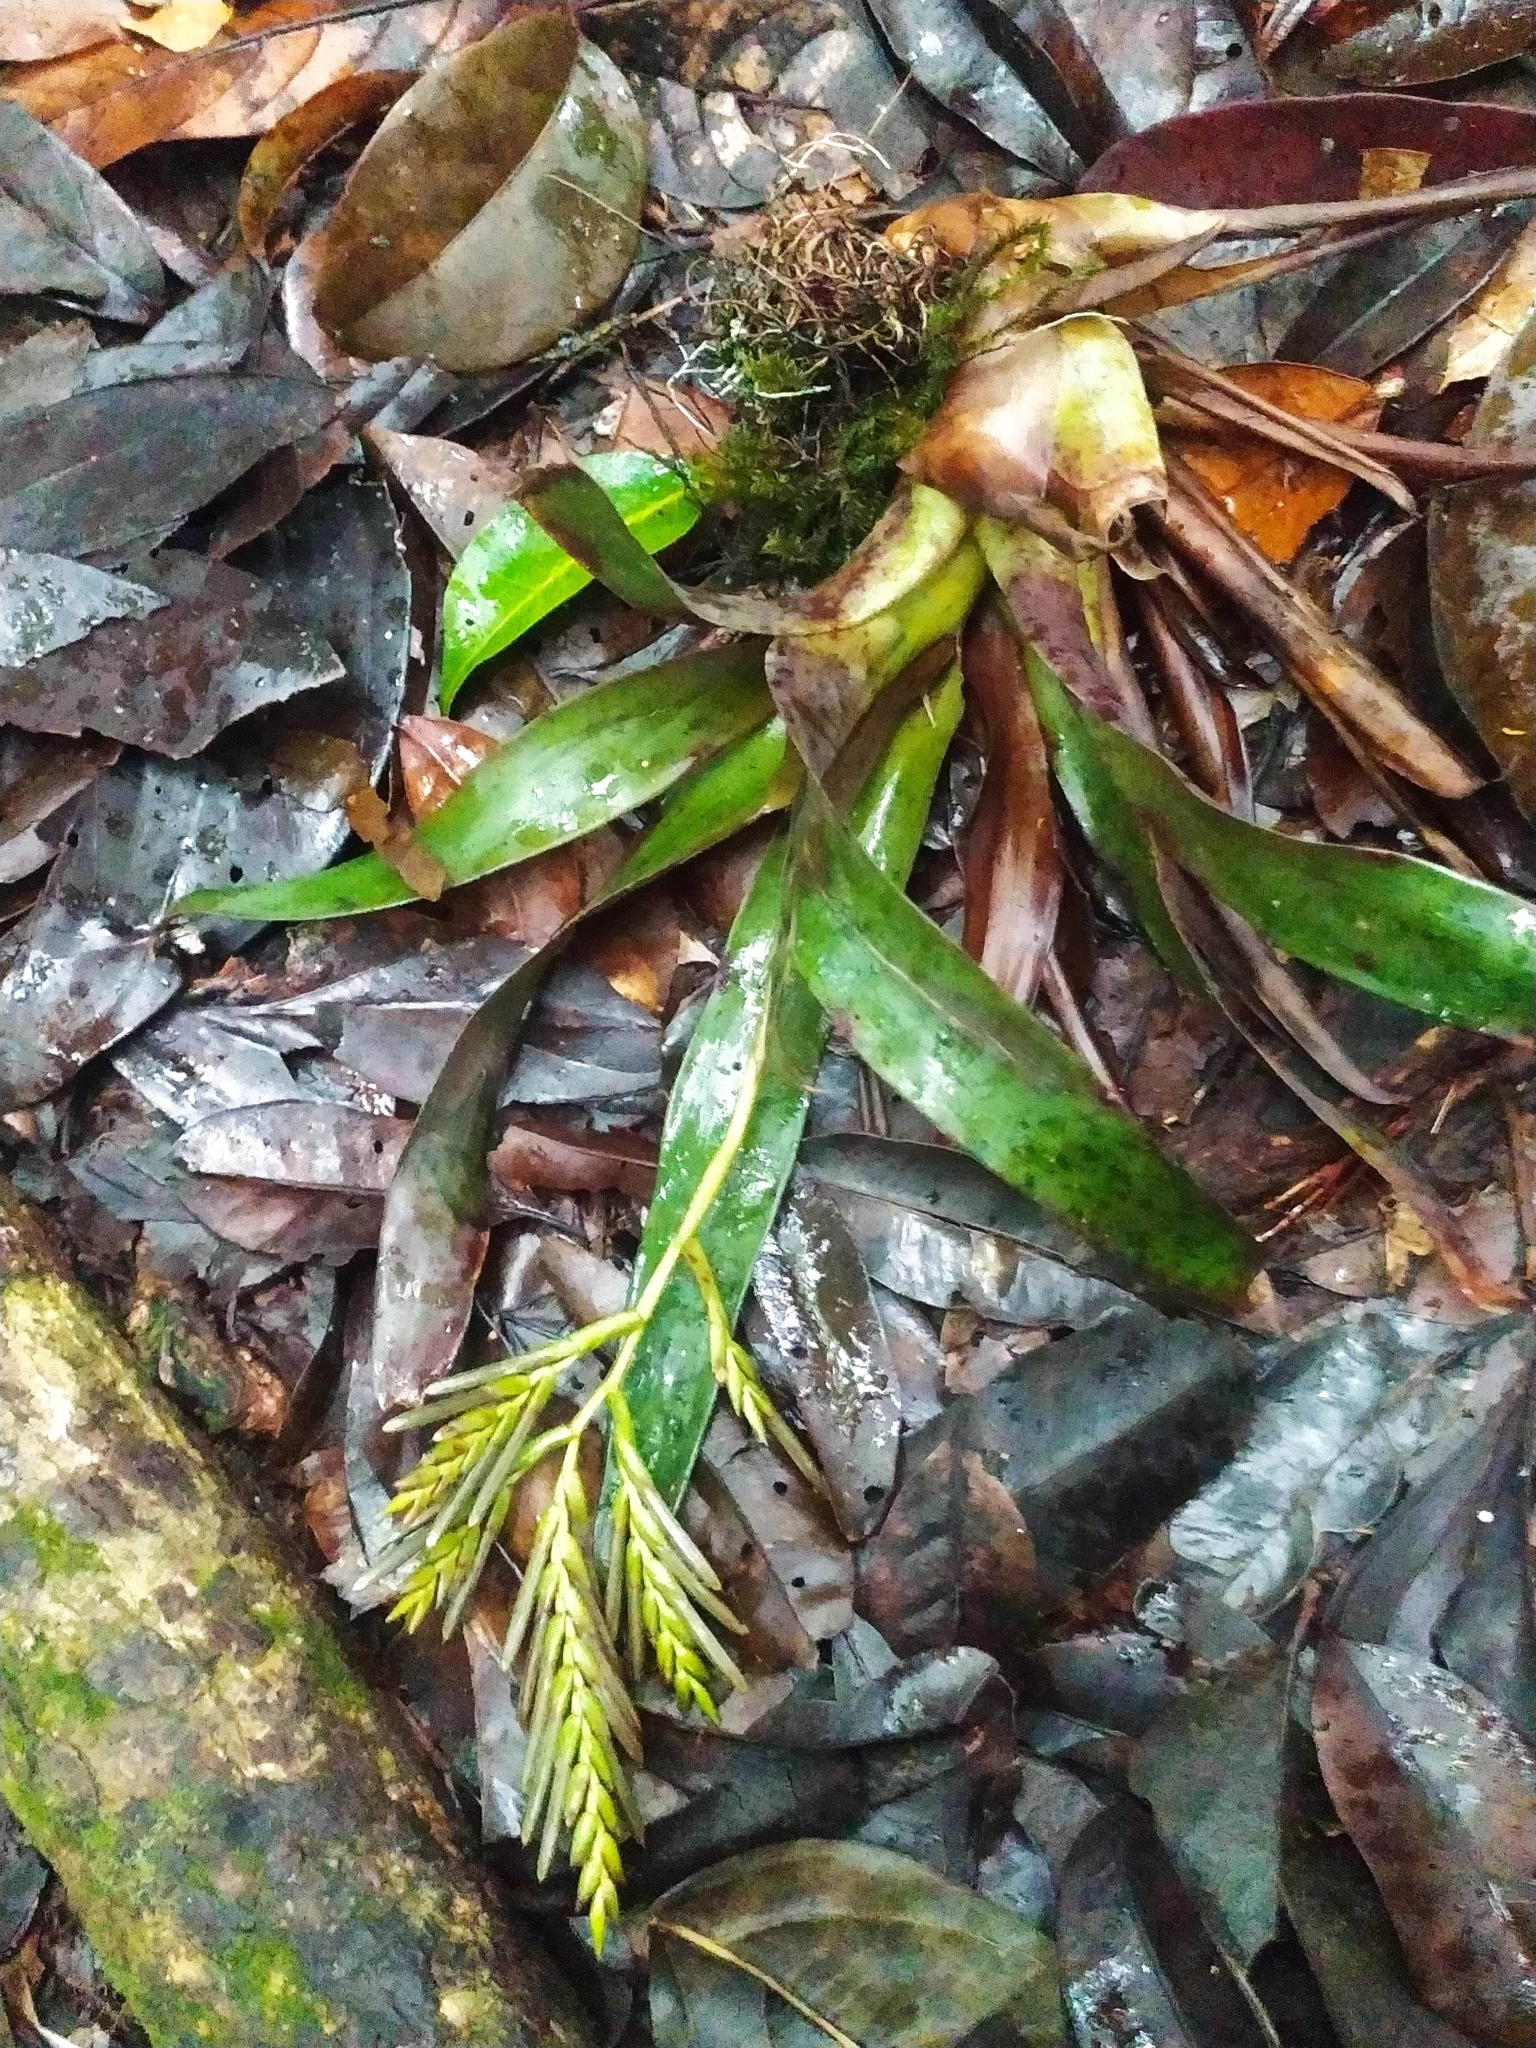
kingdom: Plantae
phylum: Tracheophyta
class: Liliopsida
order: Poales
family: Bromeliaceae
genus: Racinaea
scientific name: Racinaea spiculosa
